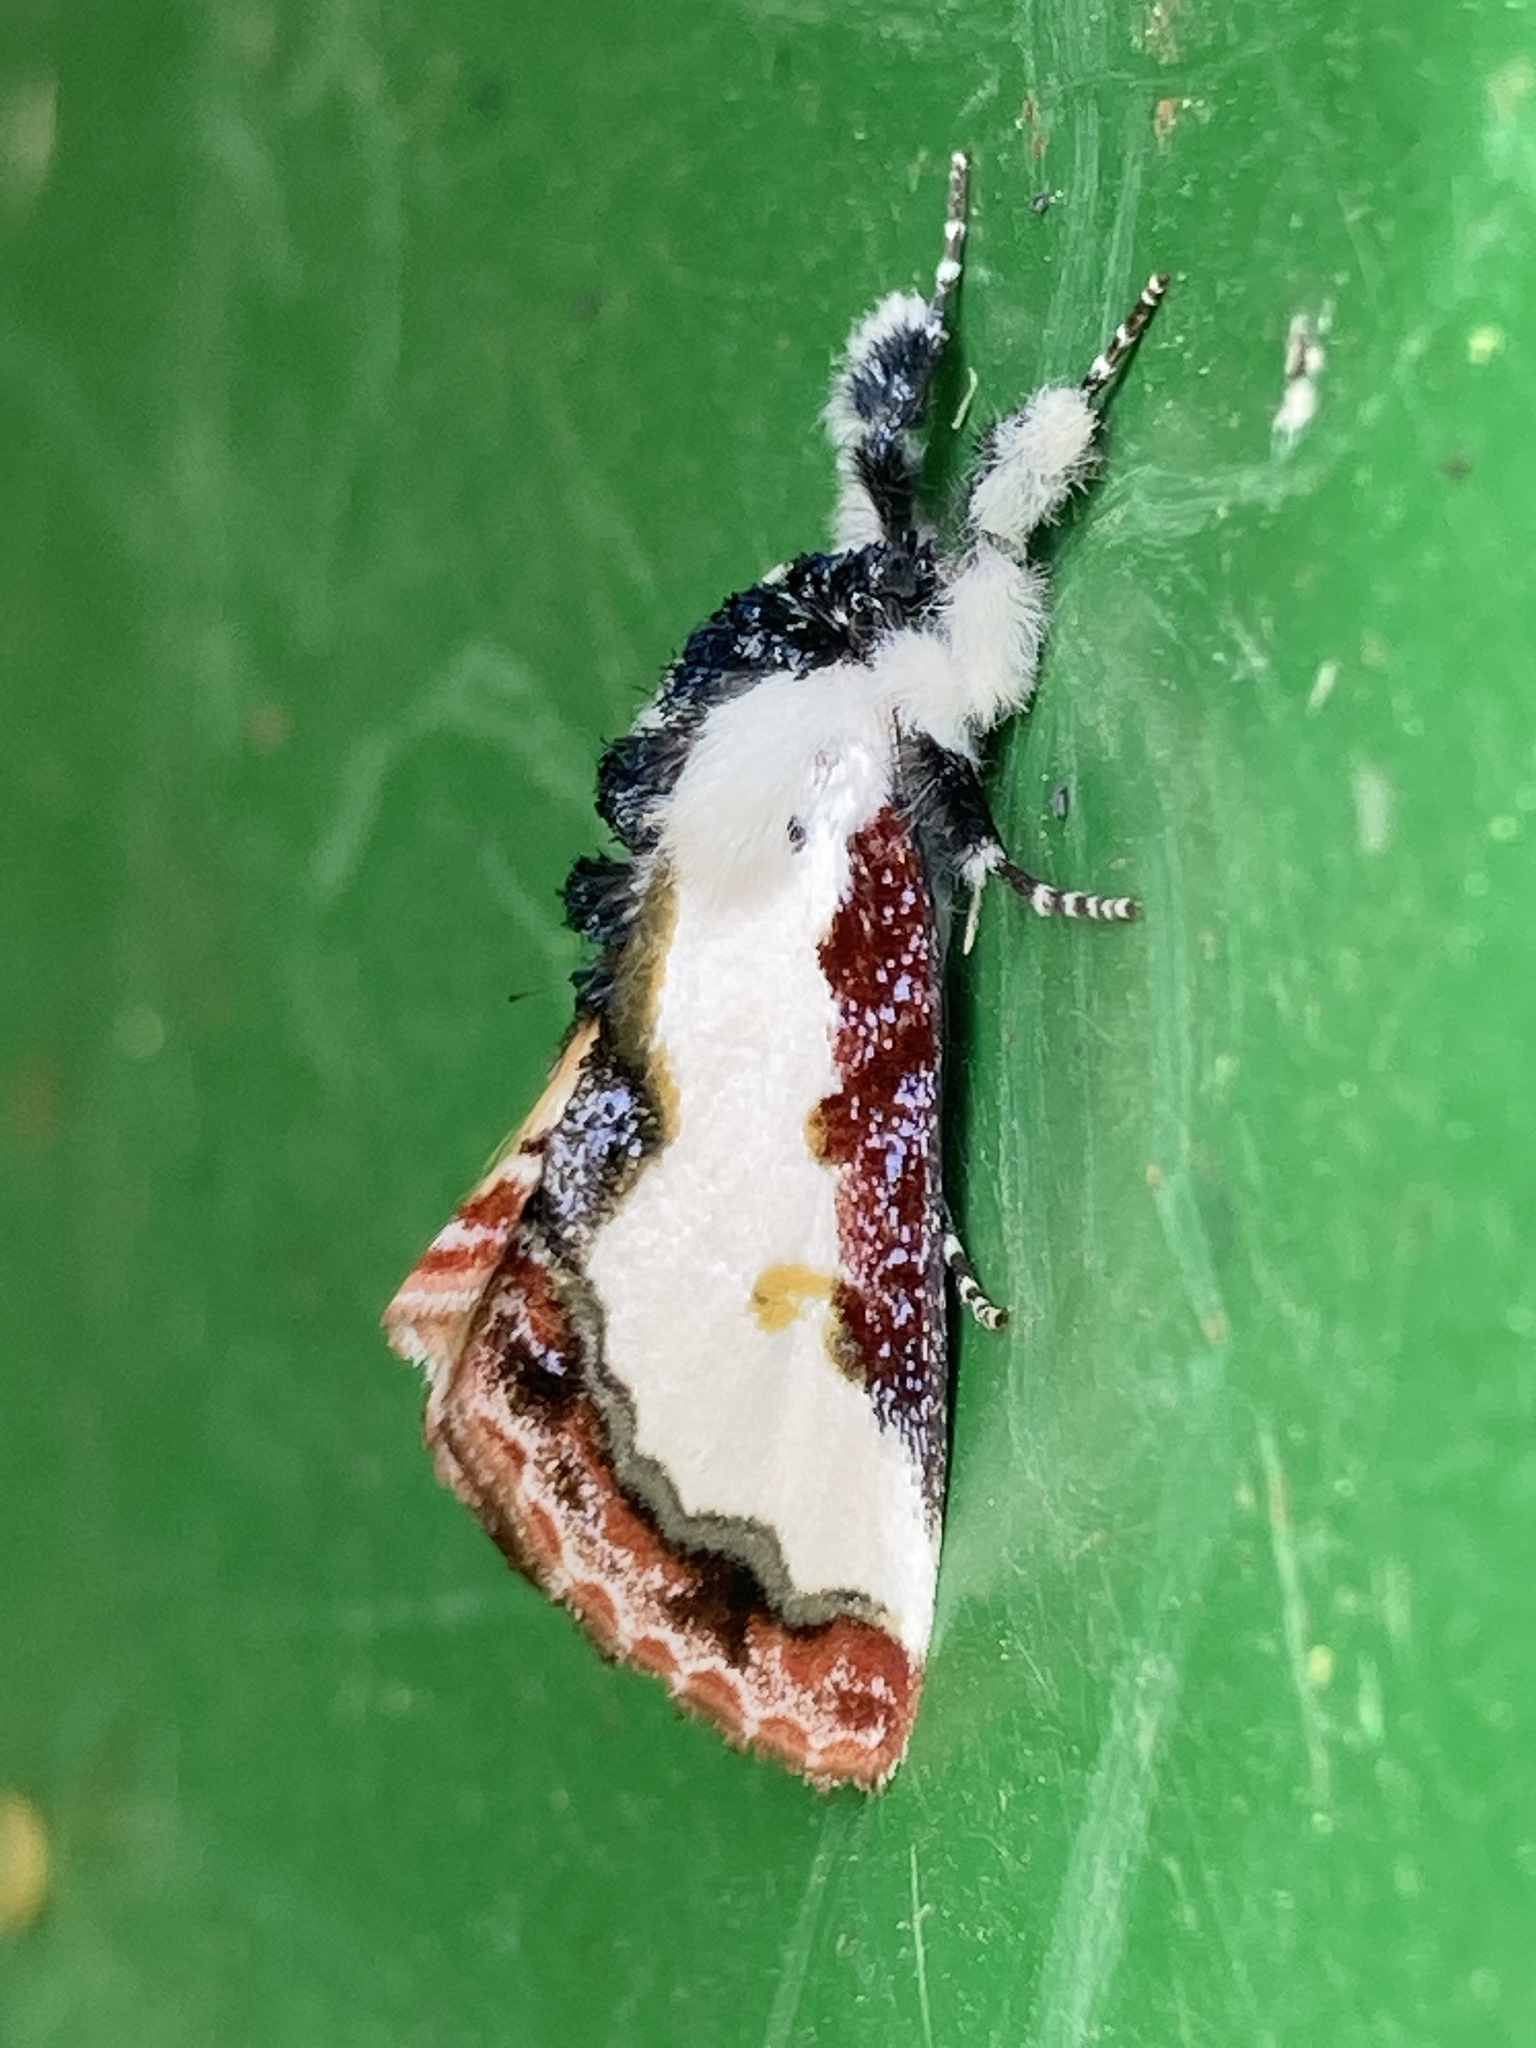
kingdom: Animalia
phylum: Arthropoda
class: Insecta
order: Lepidoptera
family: Noctuidae
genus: Eudryas
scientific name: Eudryas unio
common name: Pearly wood-nymph
